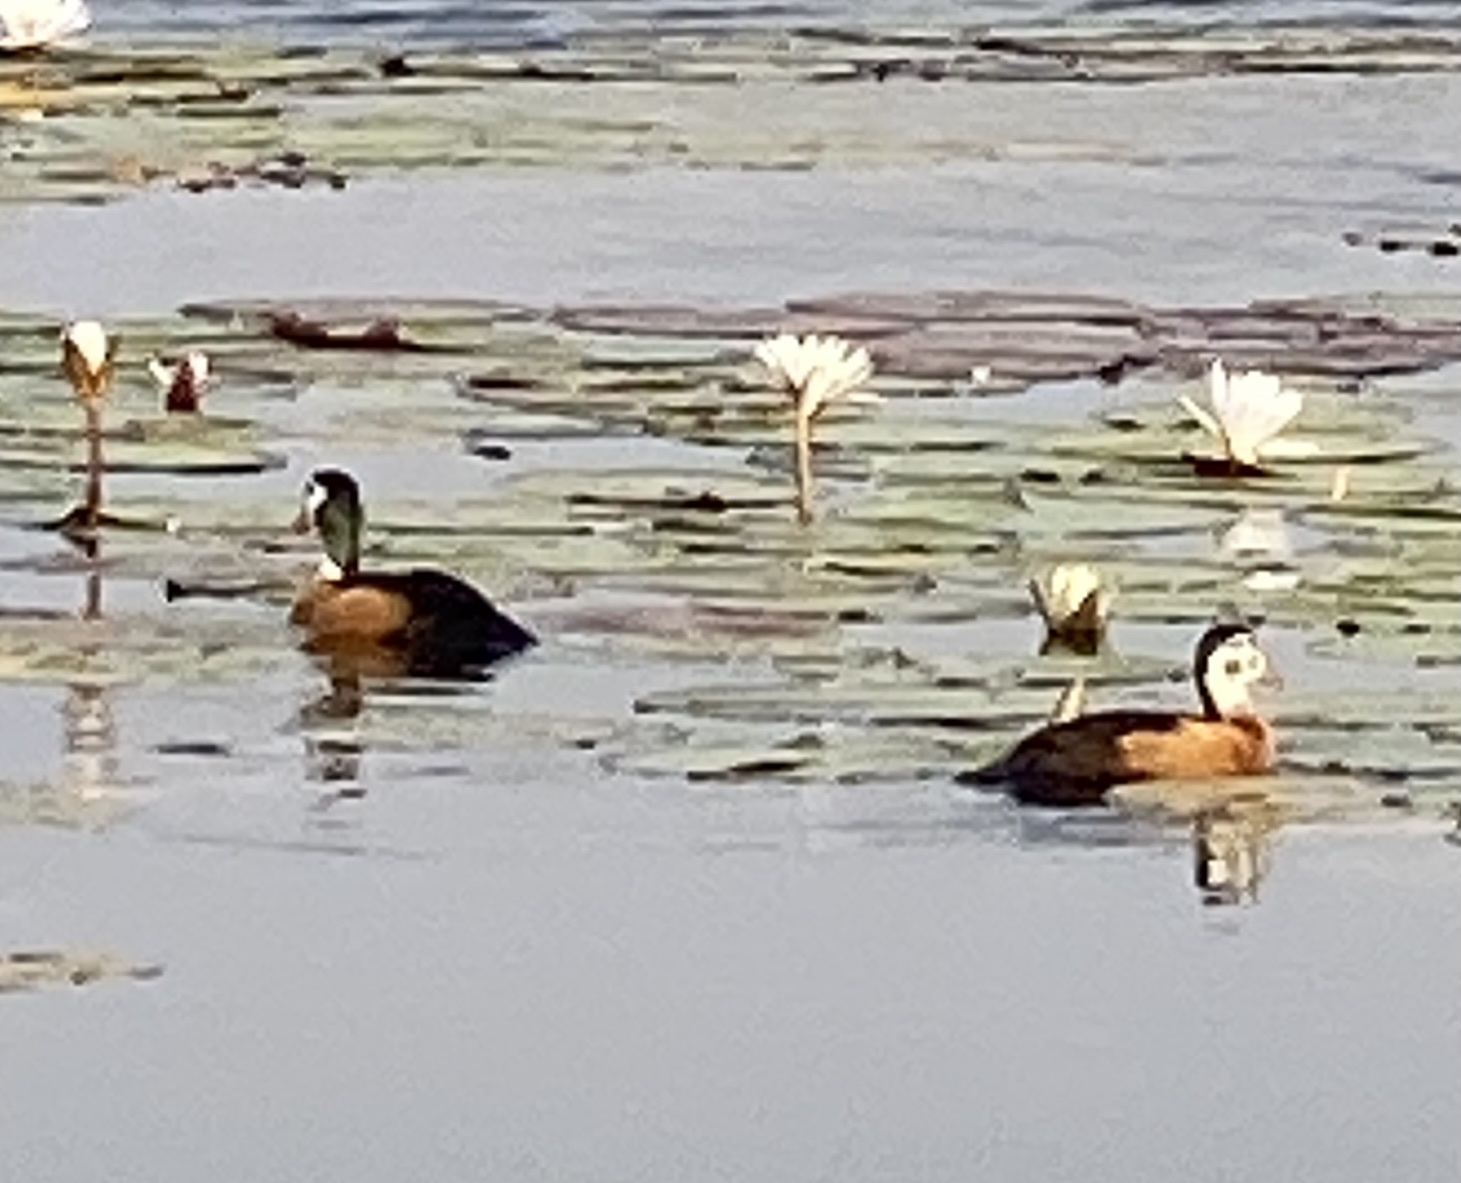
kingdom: Animalia
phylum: Chordata
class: Aves
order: Anseriformes
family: Anatidae
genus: Nettapus
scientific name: Nettapus auritus
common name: African pygmy-goose
